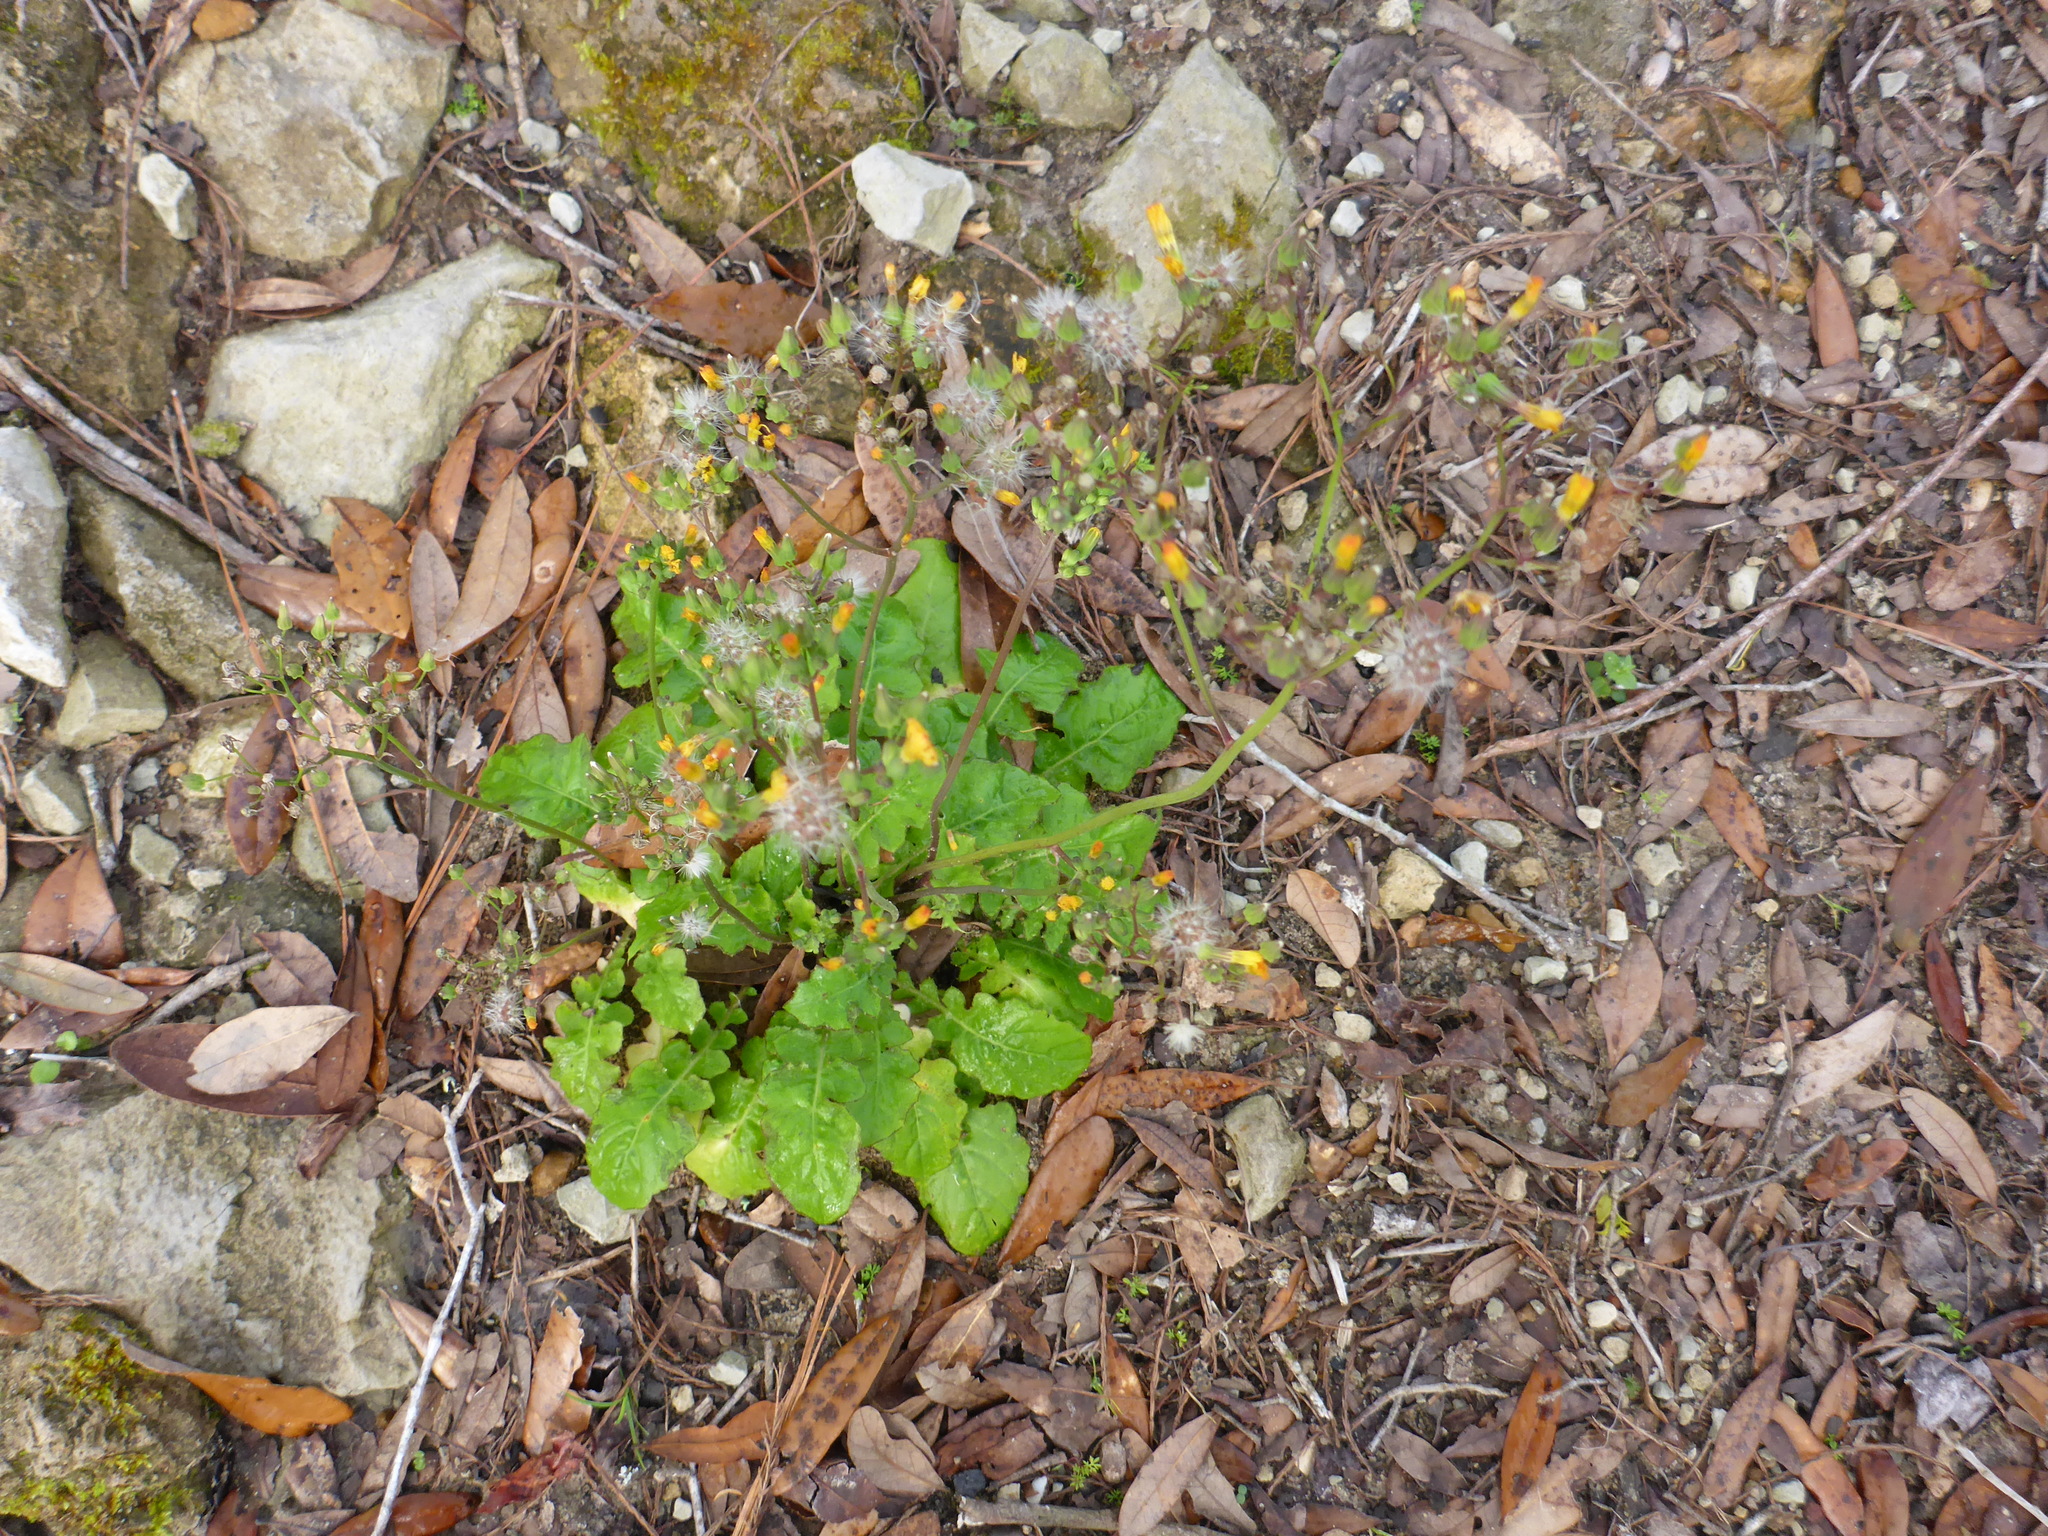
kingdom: Plantae
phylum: Tracheophyta
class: Magnoliopsida
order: Asterales
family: Asteraceae
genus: Youngia
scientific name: Youngia japonica
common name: Oriental false hawksbeard
